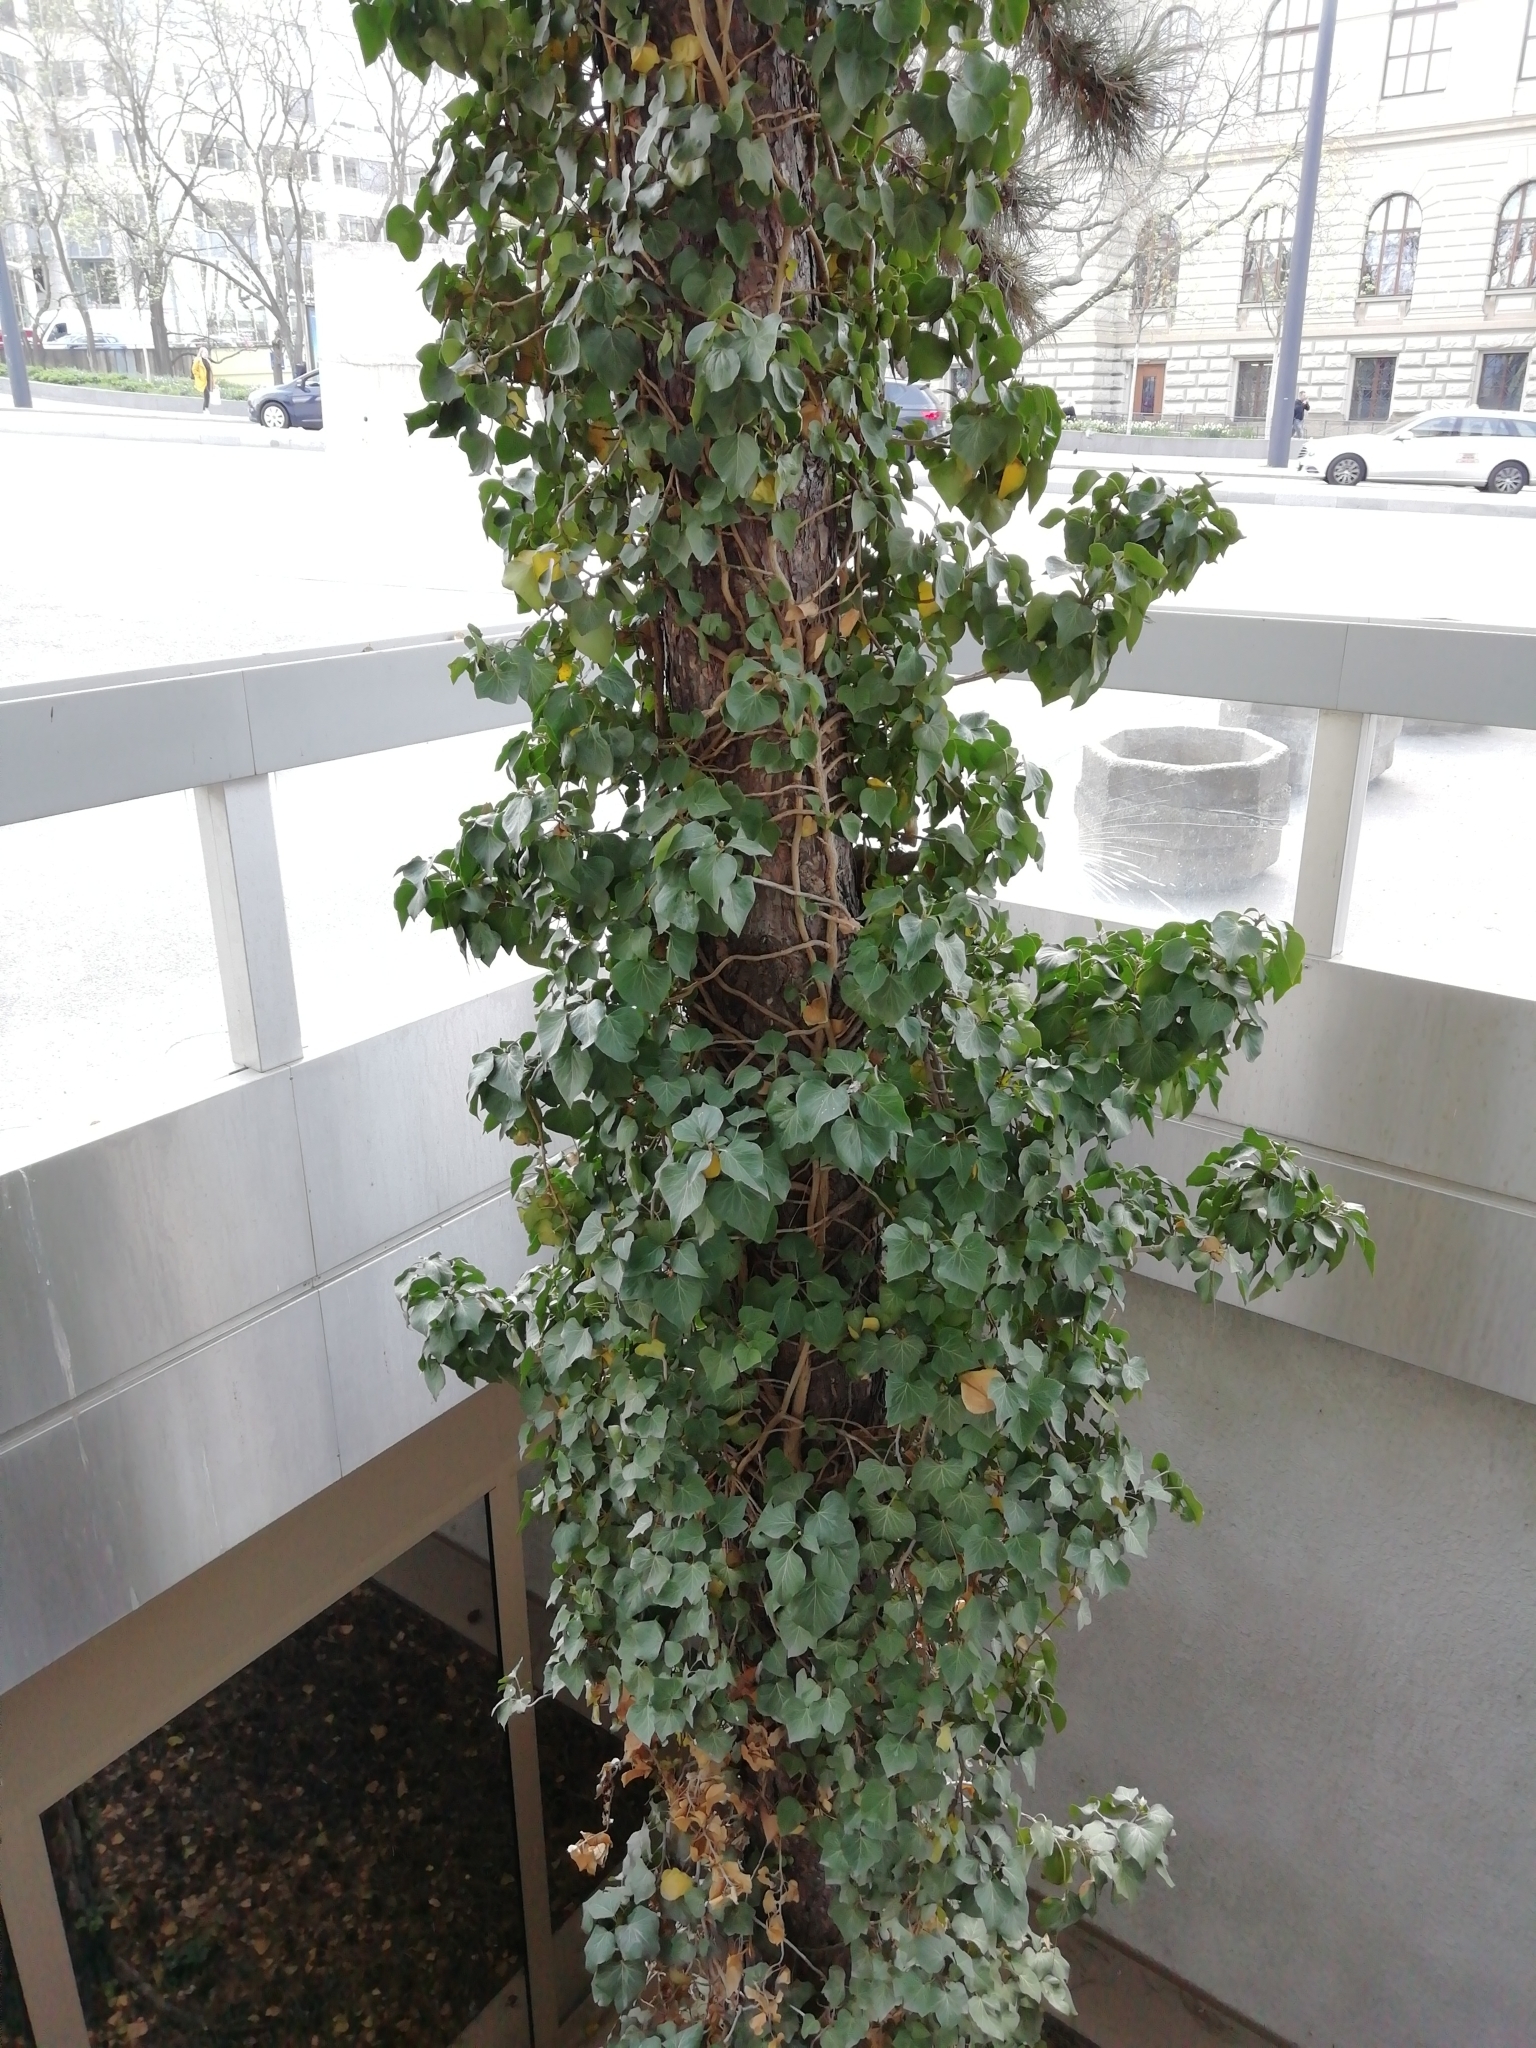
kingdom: Plantae
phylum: Tracheophyta
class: Magnoliopsida
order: Apiales
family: Araliaceae
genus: Hedera
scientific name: Hedera helix
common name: Ivy
